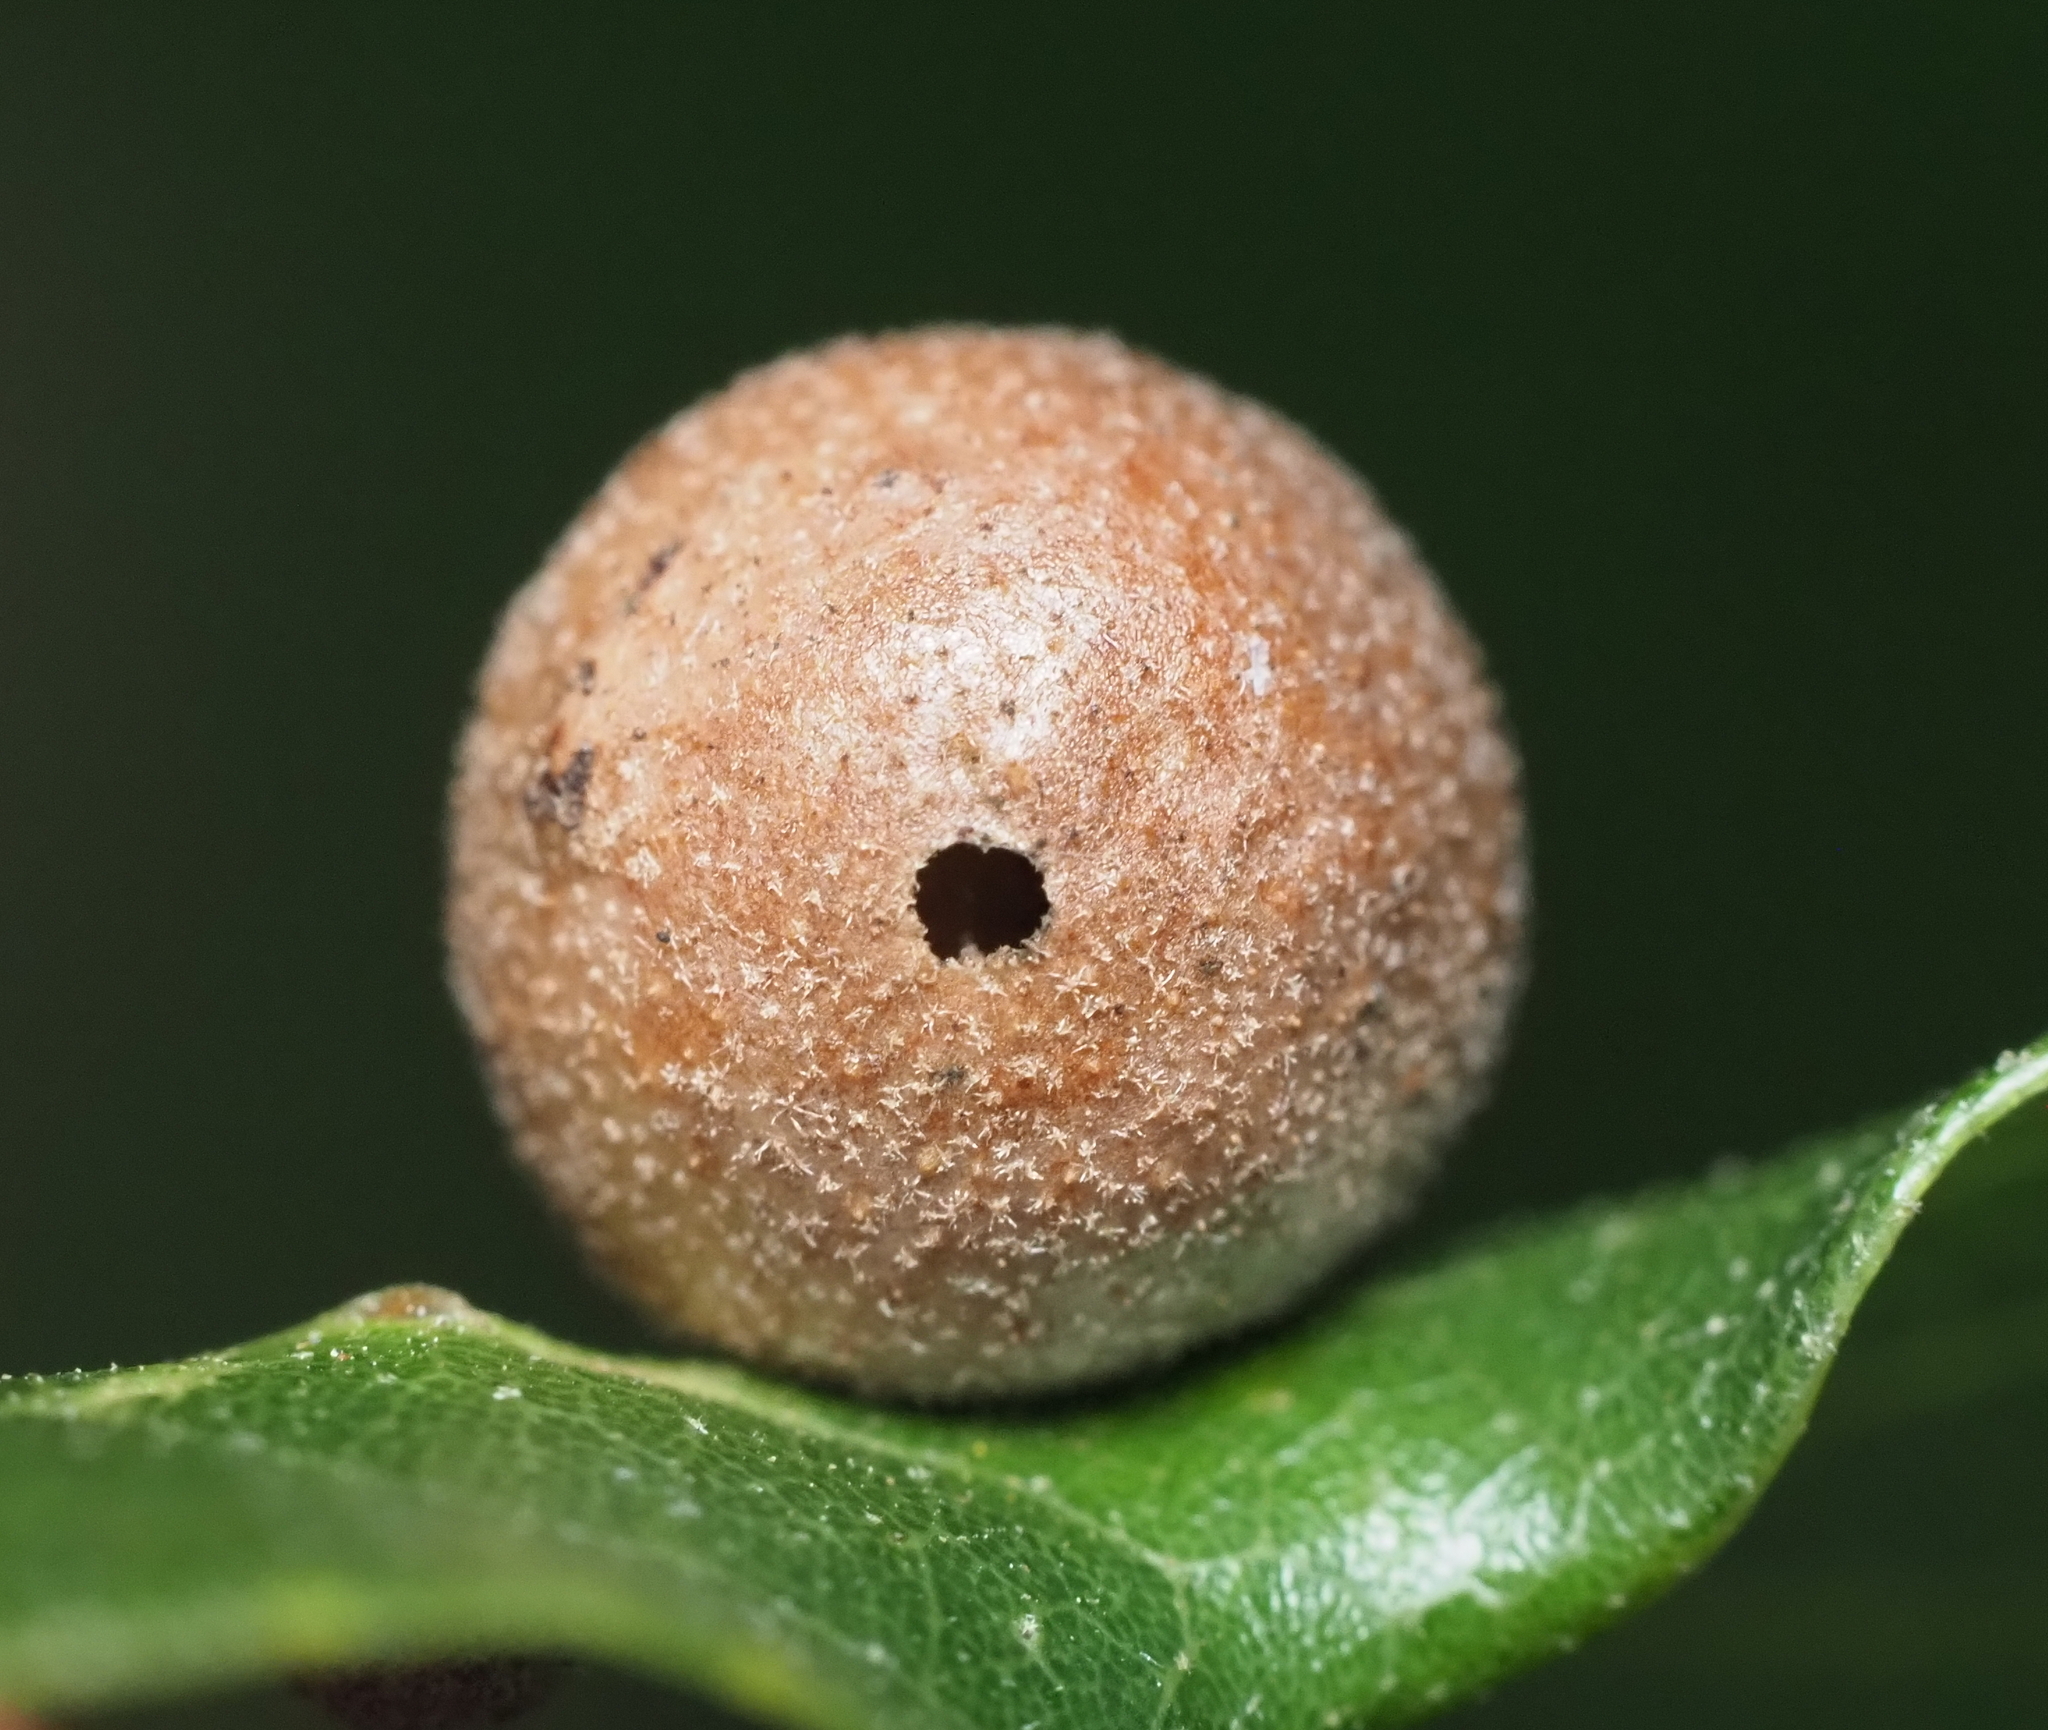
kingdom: Animalia
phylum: Arthropoda
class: Insecta
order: Hymenoptera
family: Cynipidae
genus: Belonocnema
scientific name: Belonocnema kinseyi
